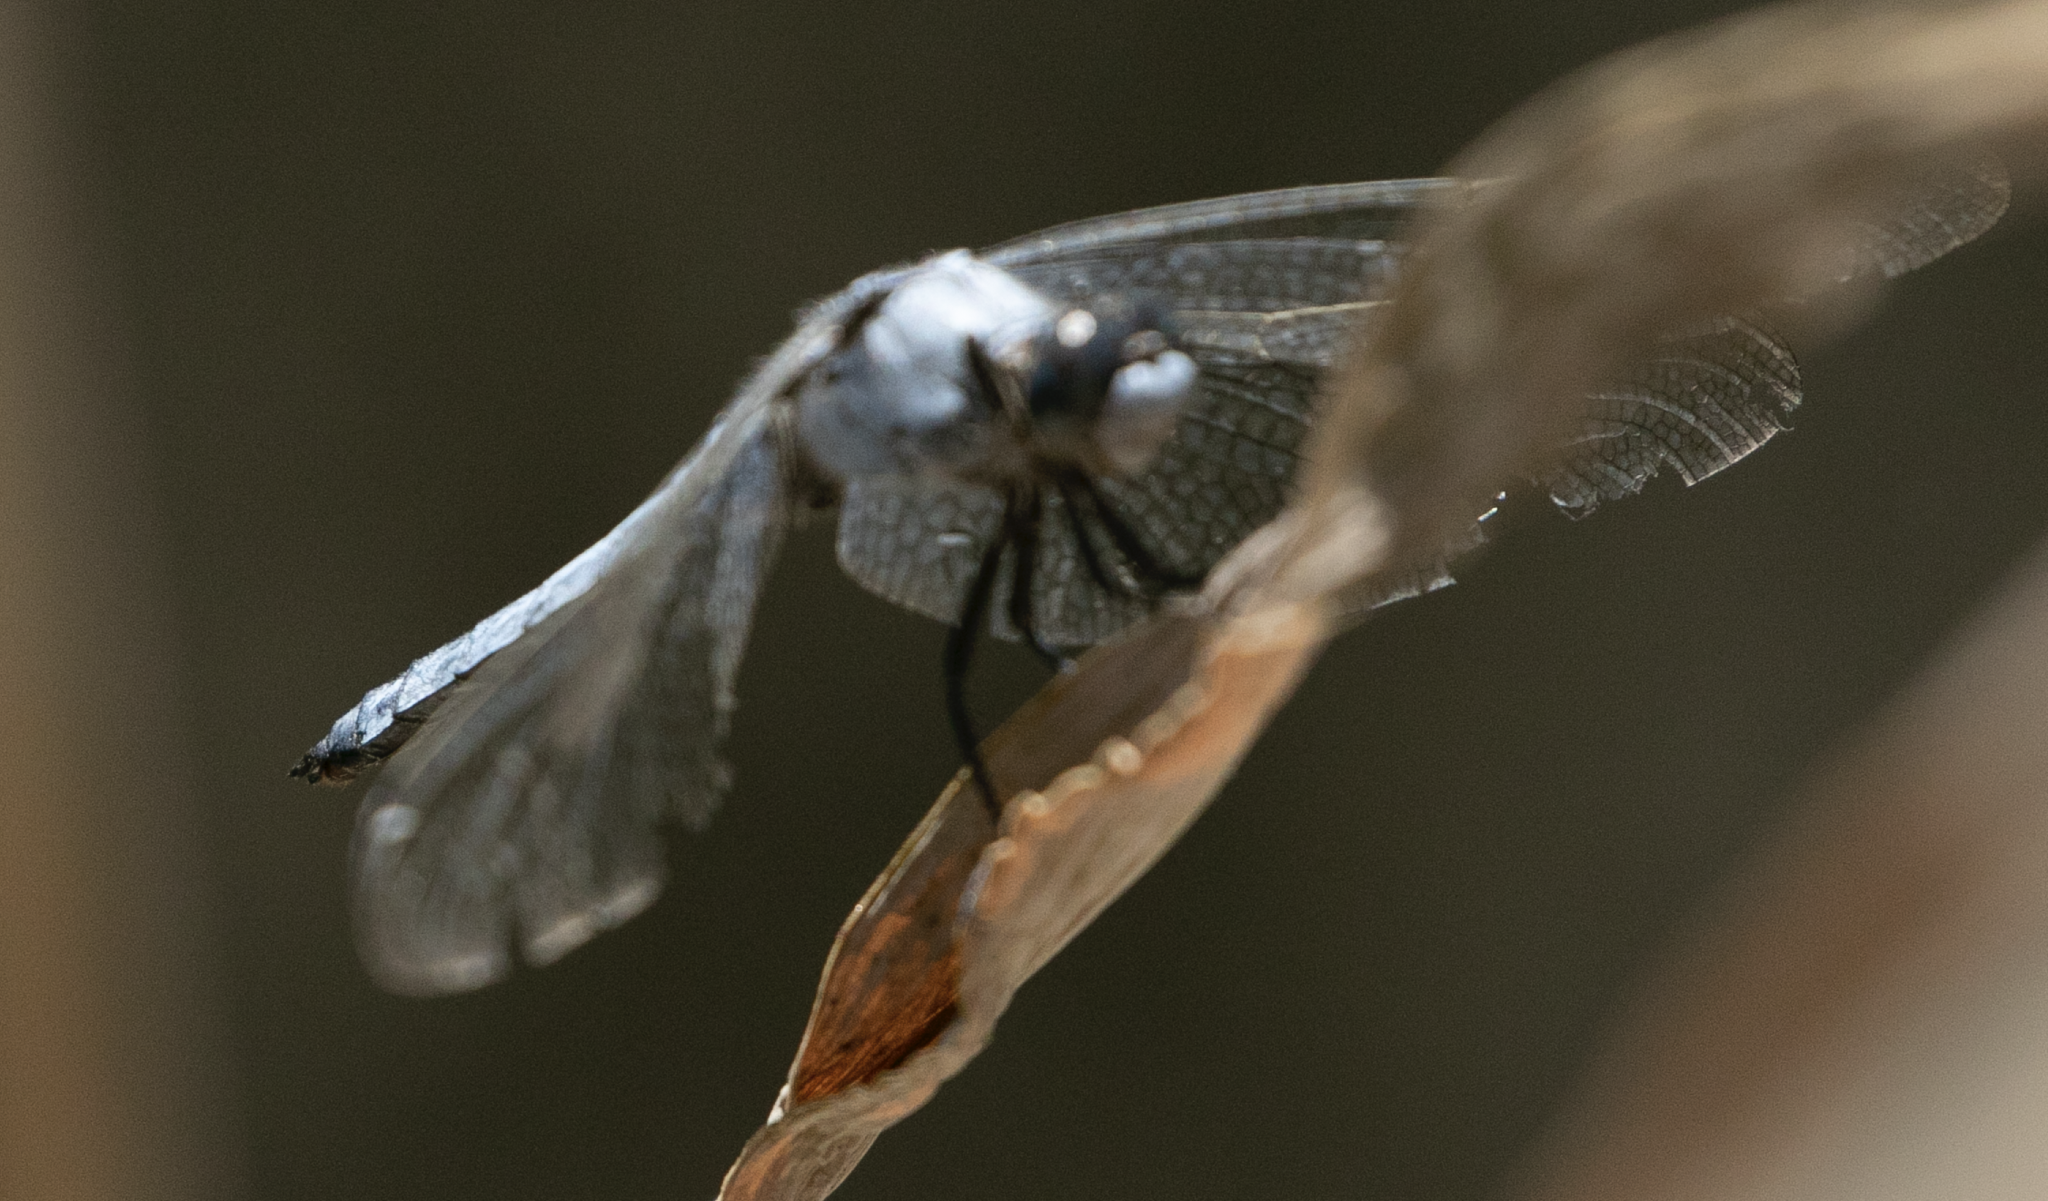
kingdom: Animalia
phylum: Arthropoda
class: Insecta
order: Odonata
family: Libellulidae
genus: Orthetrum
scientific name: Orthetrum brunneum
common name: Southern skimmer
